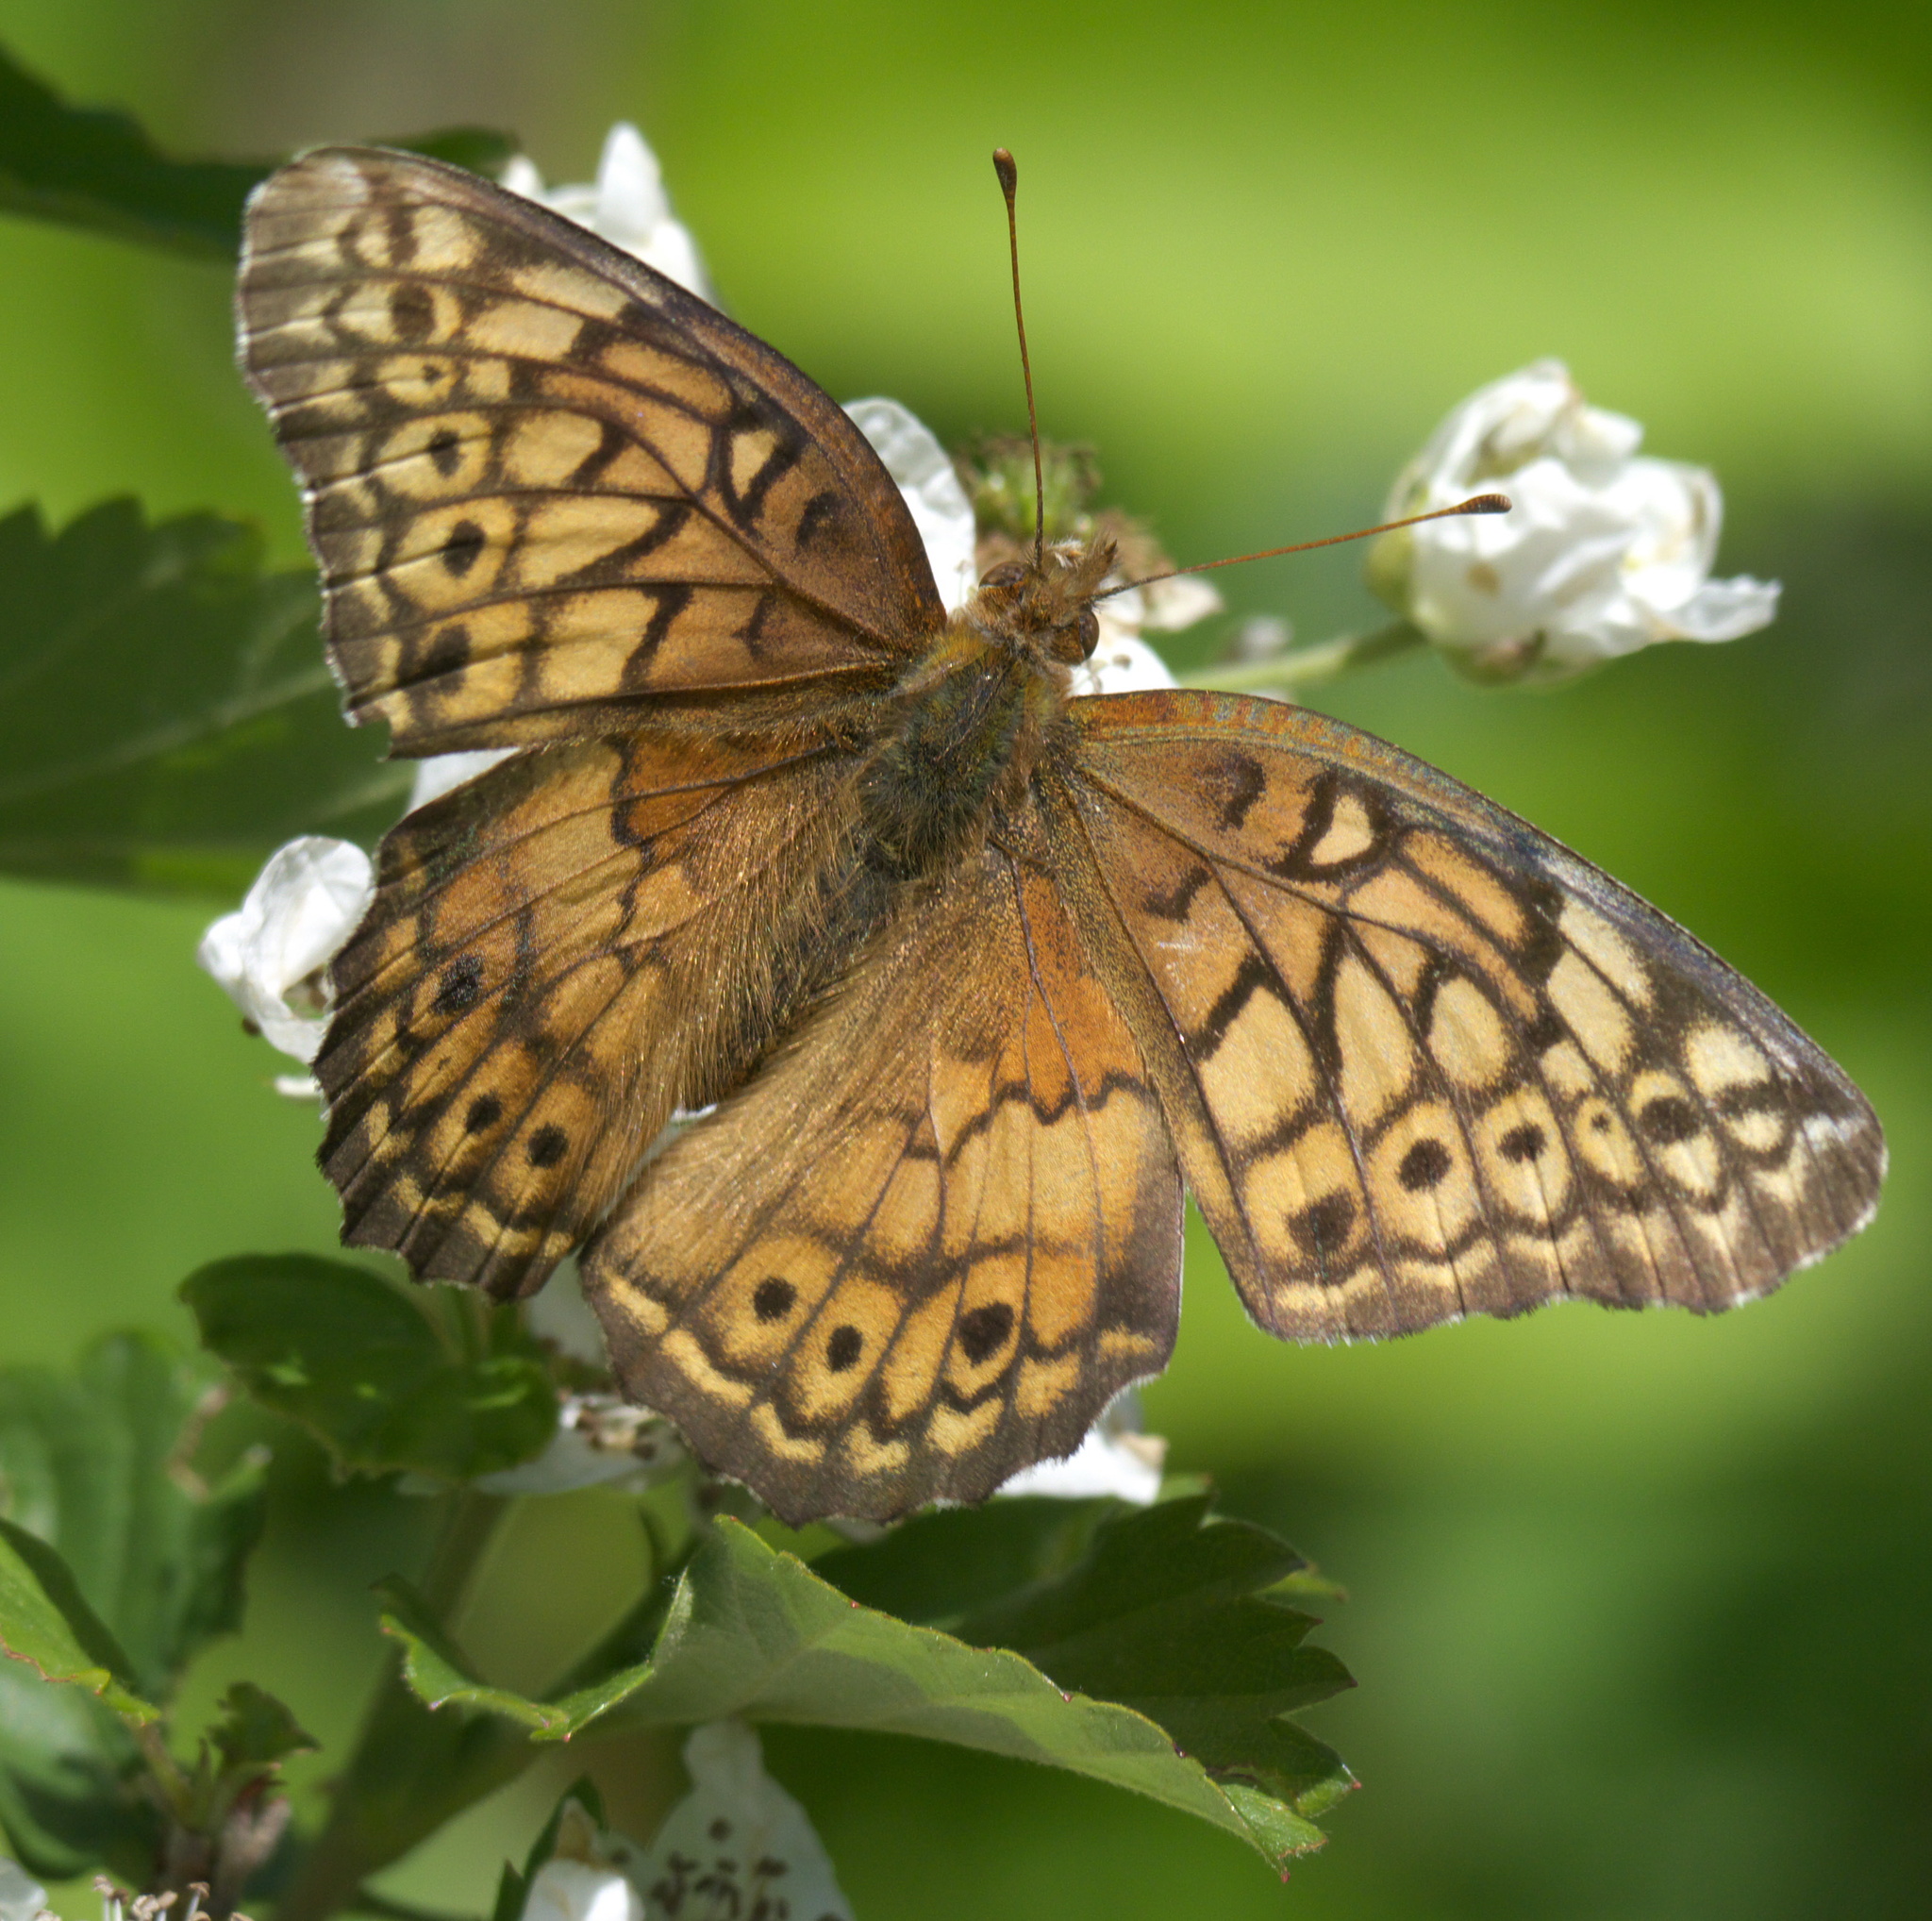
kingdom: Animalia
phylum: Arthropoda
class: Insecta
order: Lepidoptera
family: Nymphalidae
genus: Euptoieta
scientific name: Euptoieta claudia
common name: Variegated fritillary
